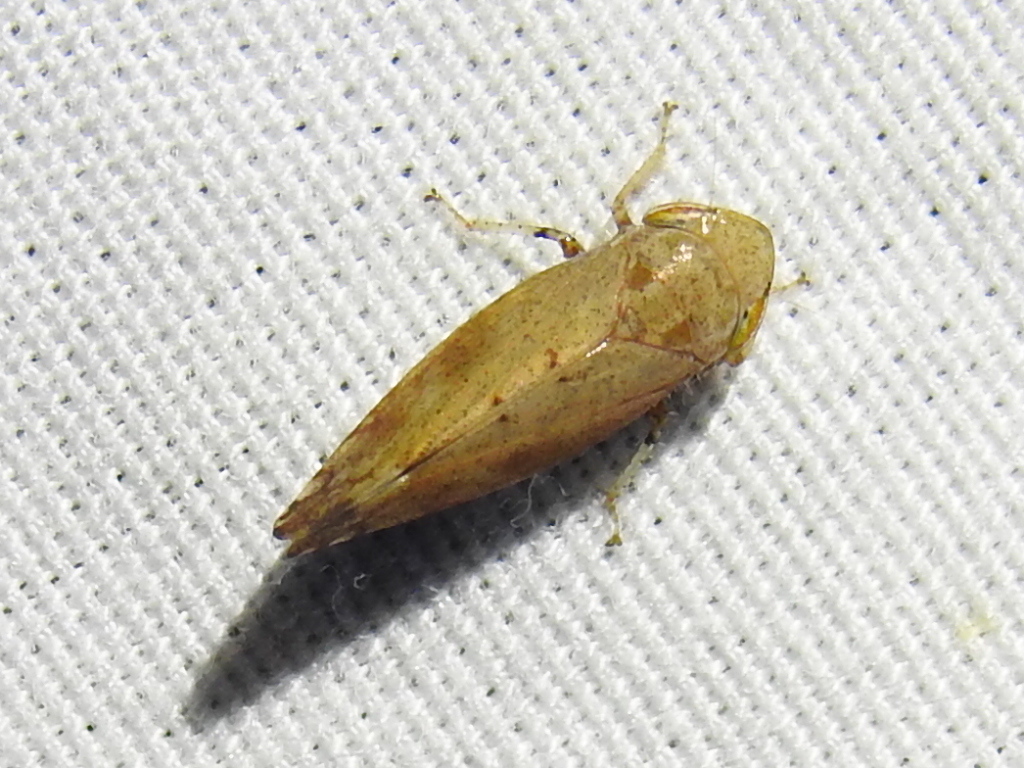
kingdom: Animalia
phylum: Arthropoda
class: Insecta
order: Hemiptera
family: Cicadellidae
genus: Fieberiella
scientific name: Fieberiella florii
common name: Flor’s leafhopper
